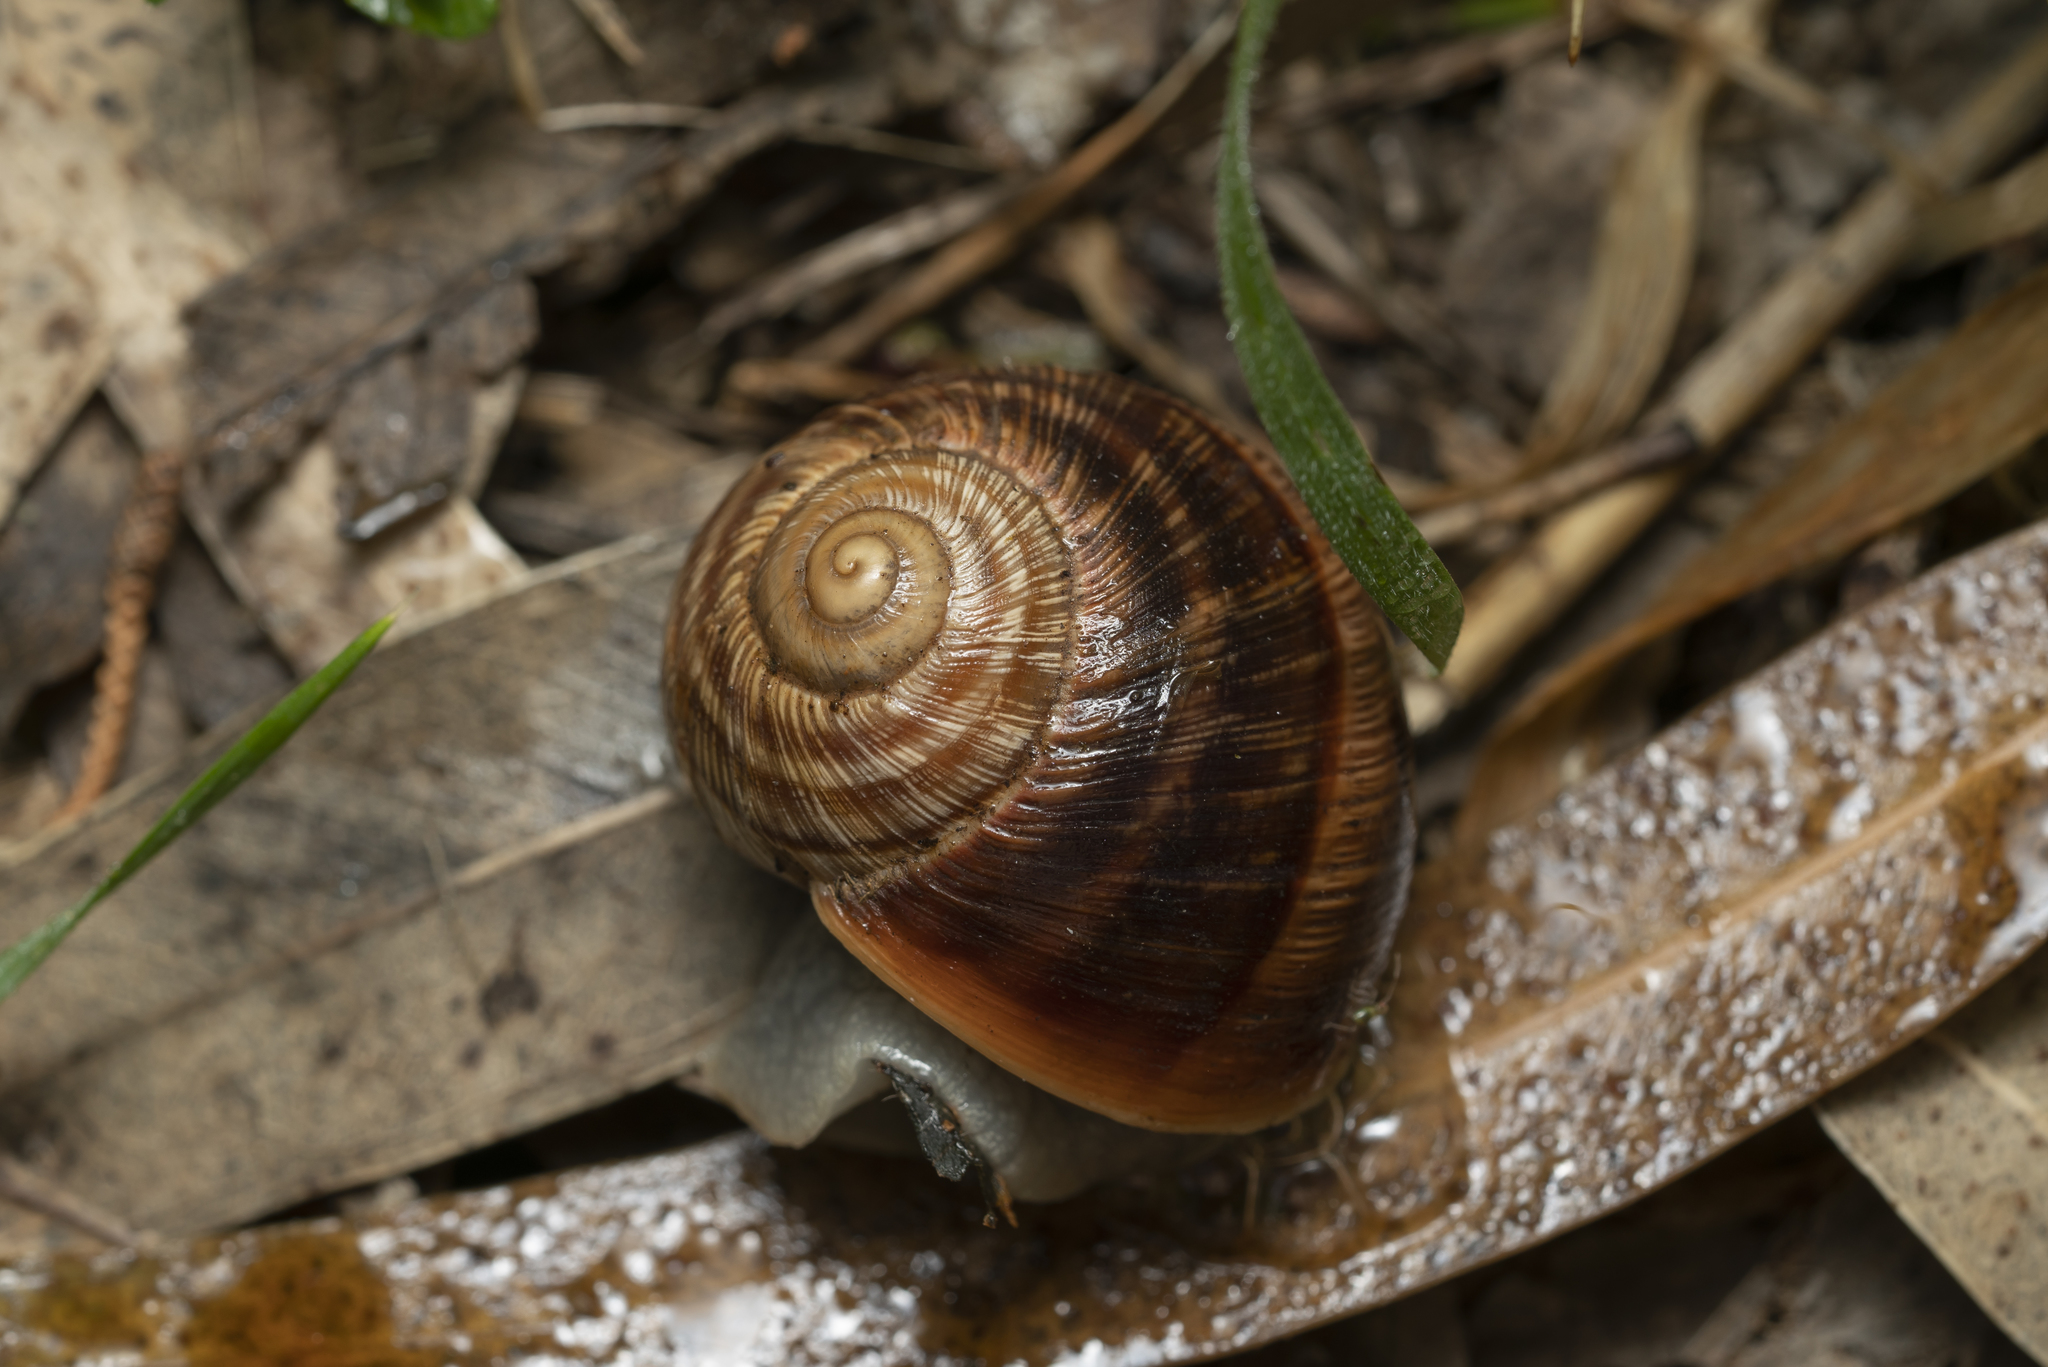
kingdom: Animalia
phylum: Mollusca
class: Gastropoda
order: Stylommatophora
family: Helicidae
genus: Helix
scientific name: Helix nucula
